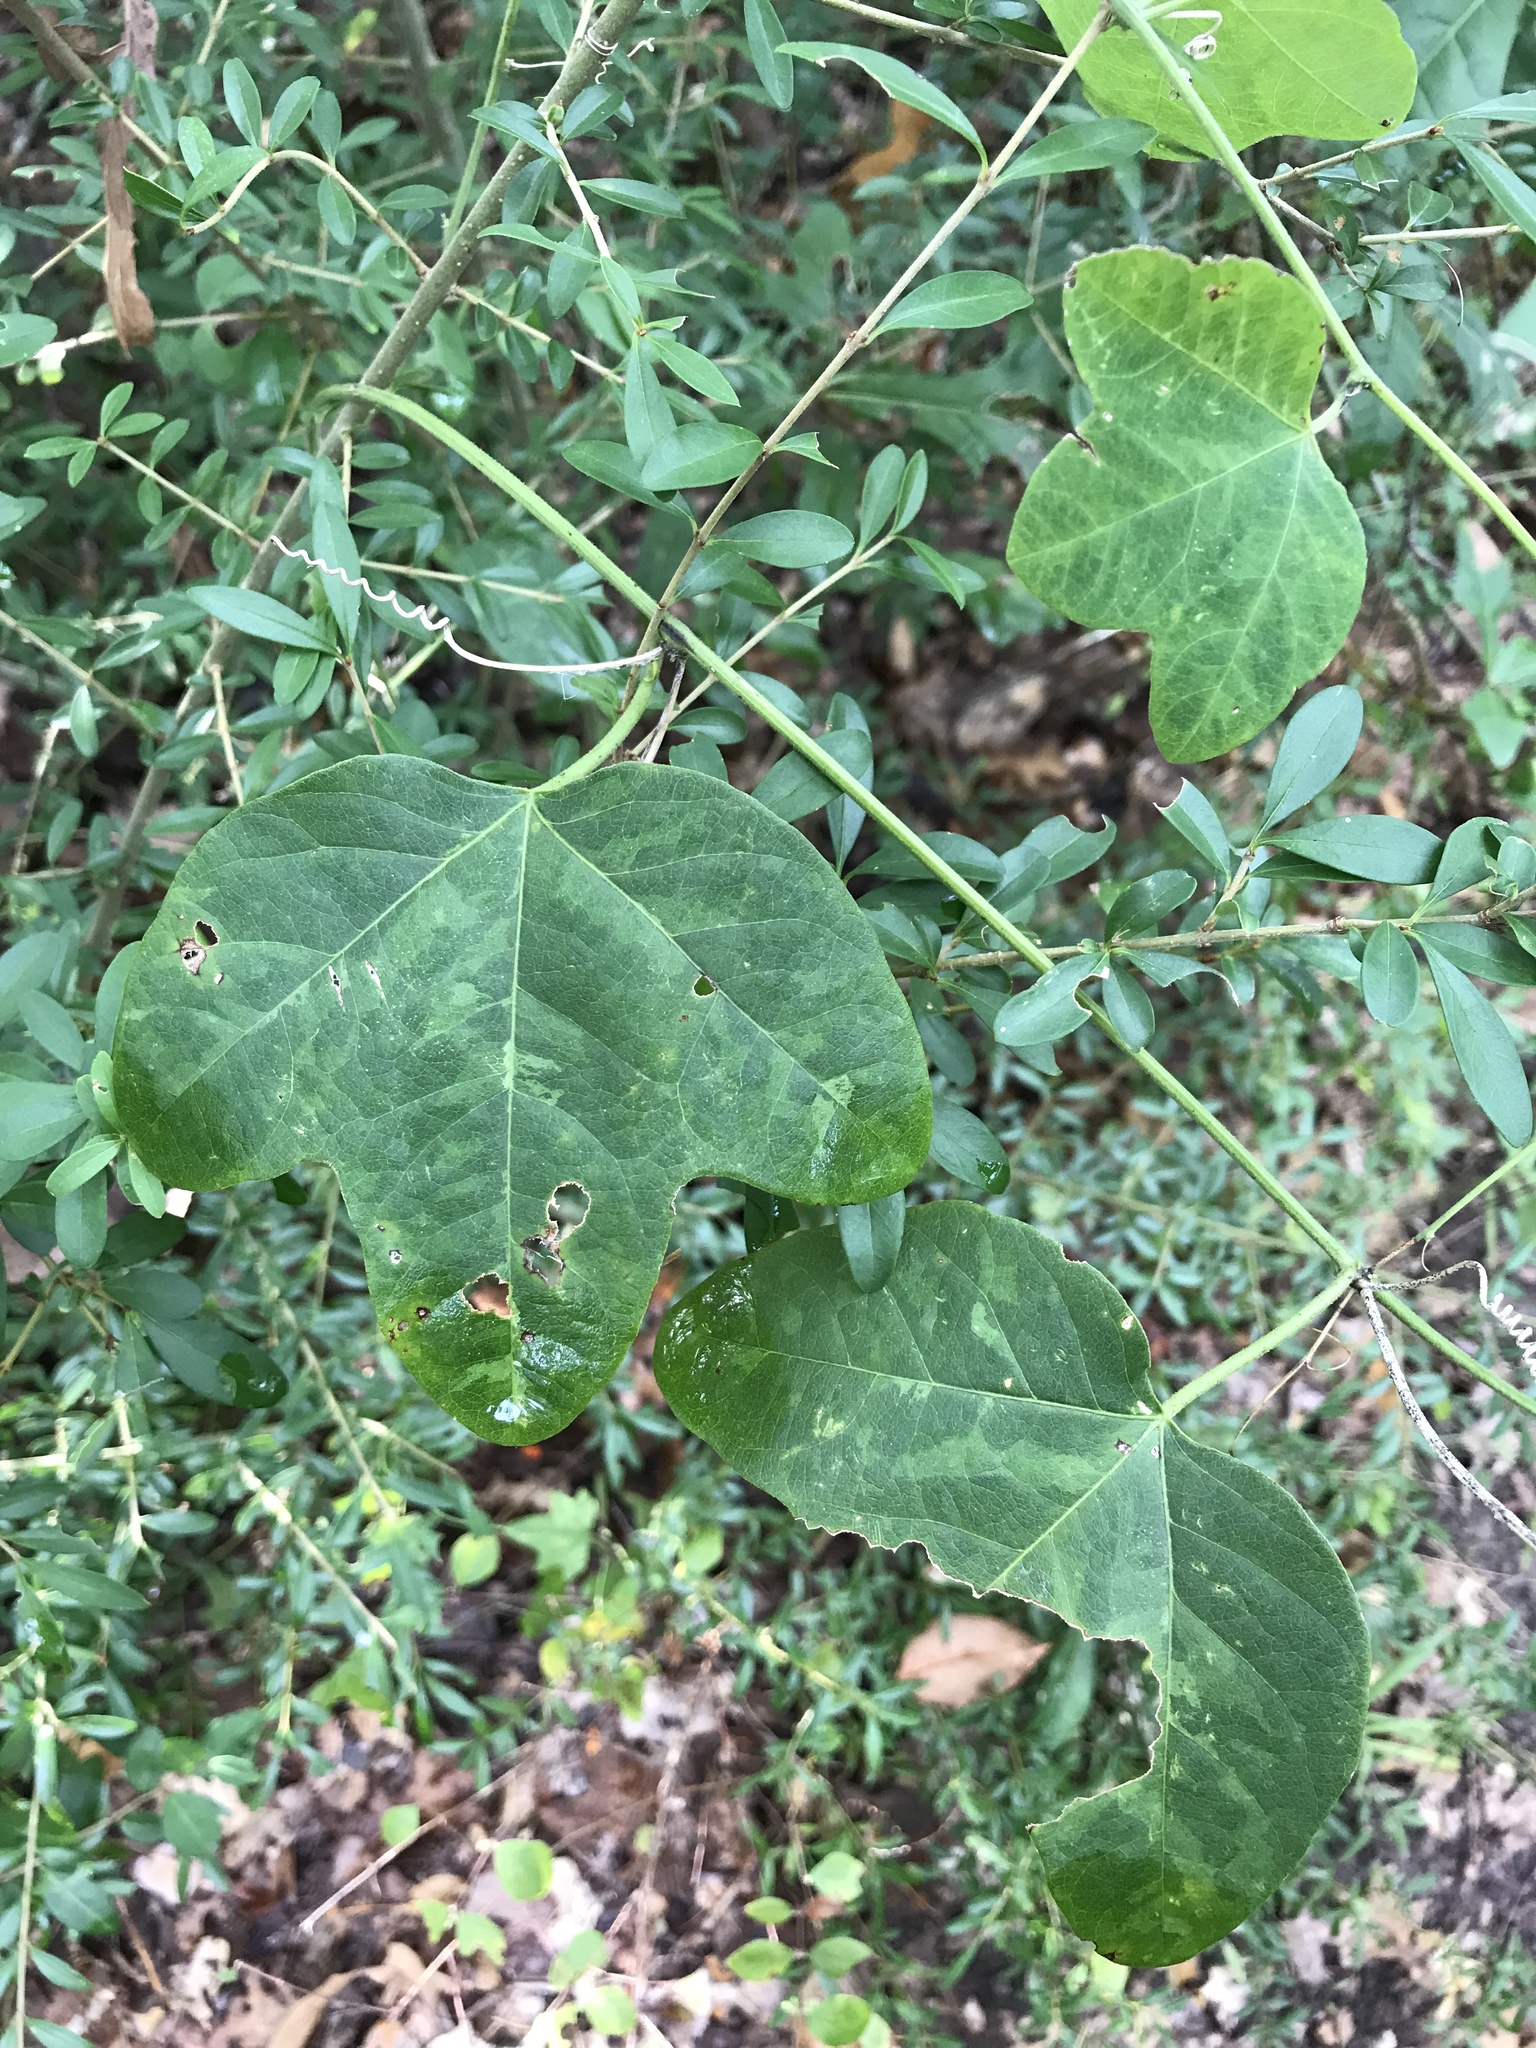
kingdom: Plantae
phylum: Tracheophyta
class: Magnoliopsida
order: Malpighiales
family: Passifloraceae
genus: Passiflora
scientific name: Passiflora lutea
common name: Yellow passionflower
